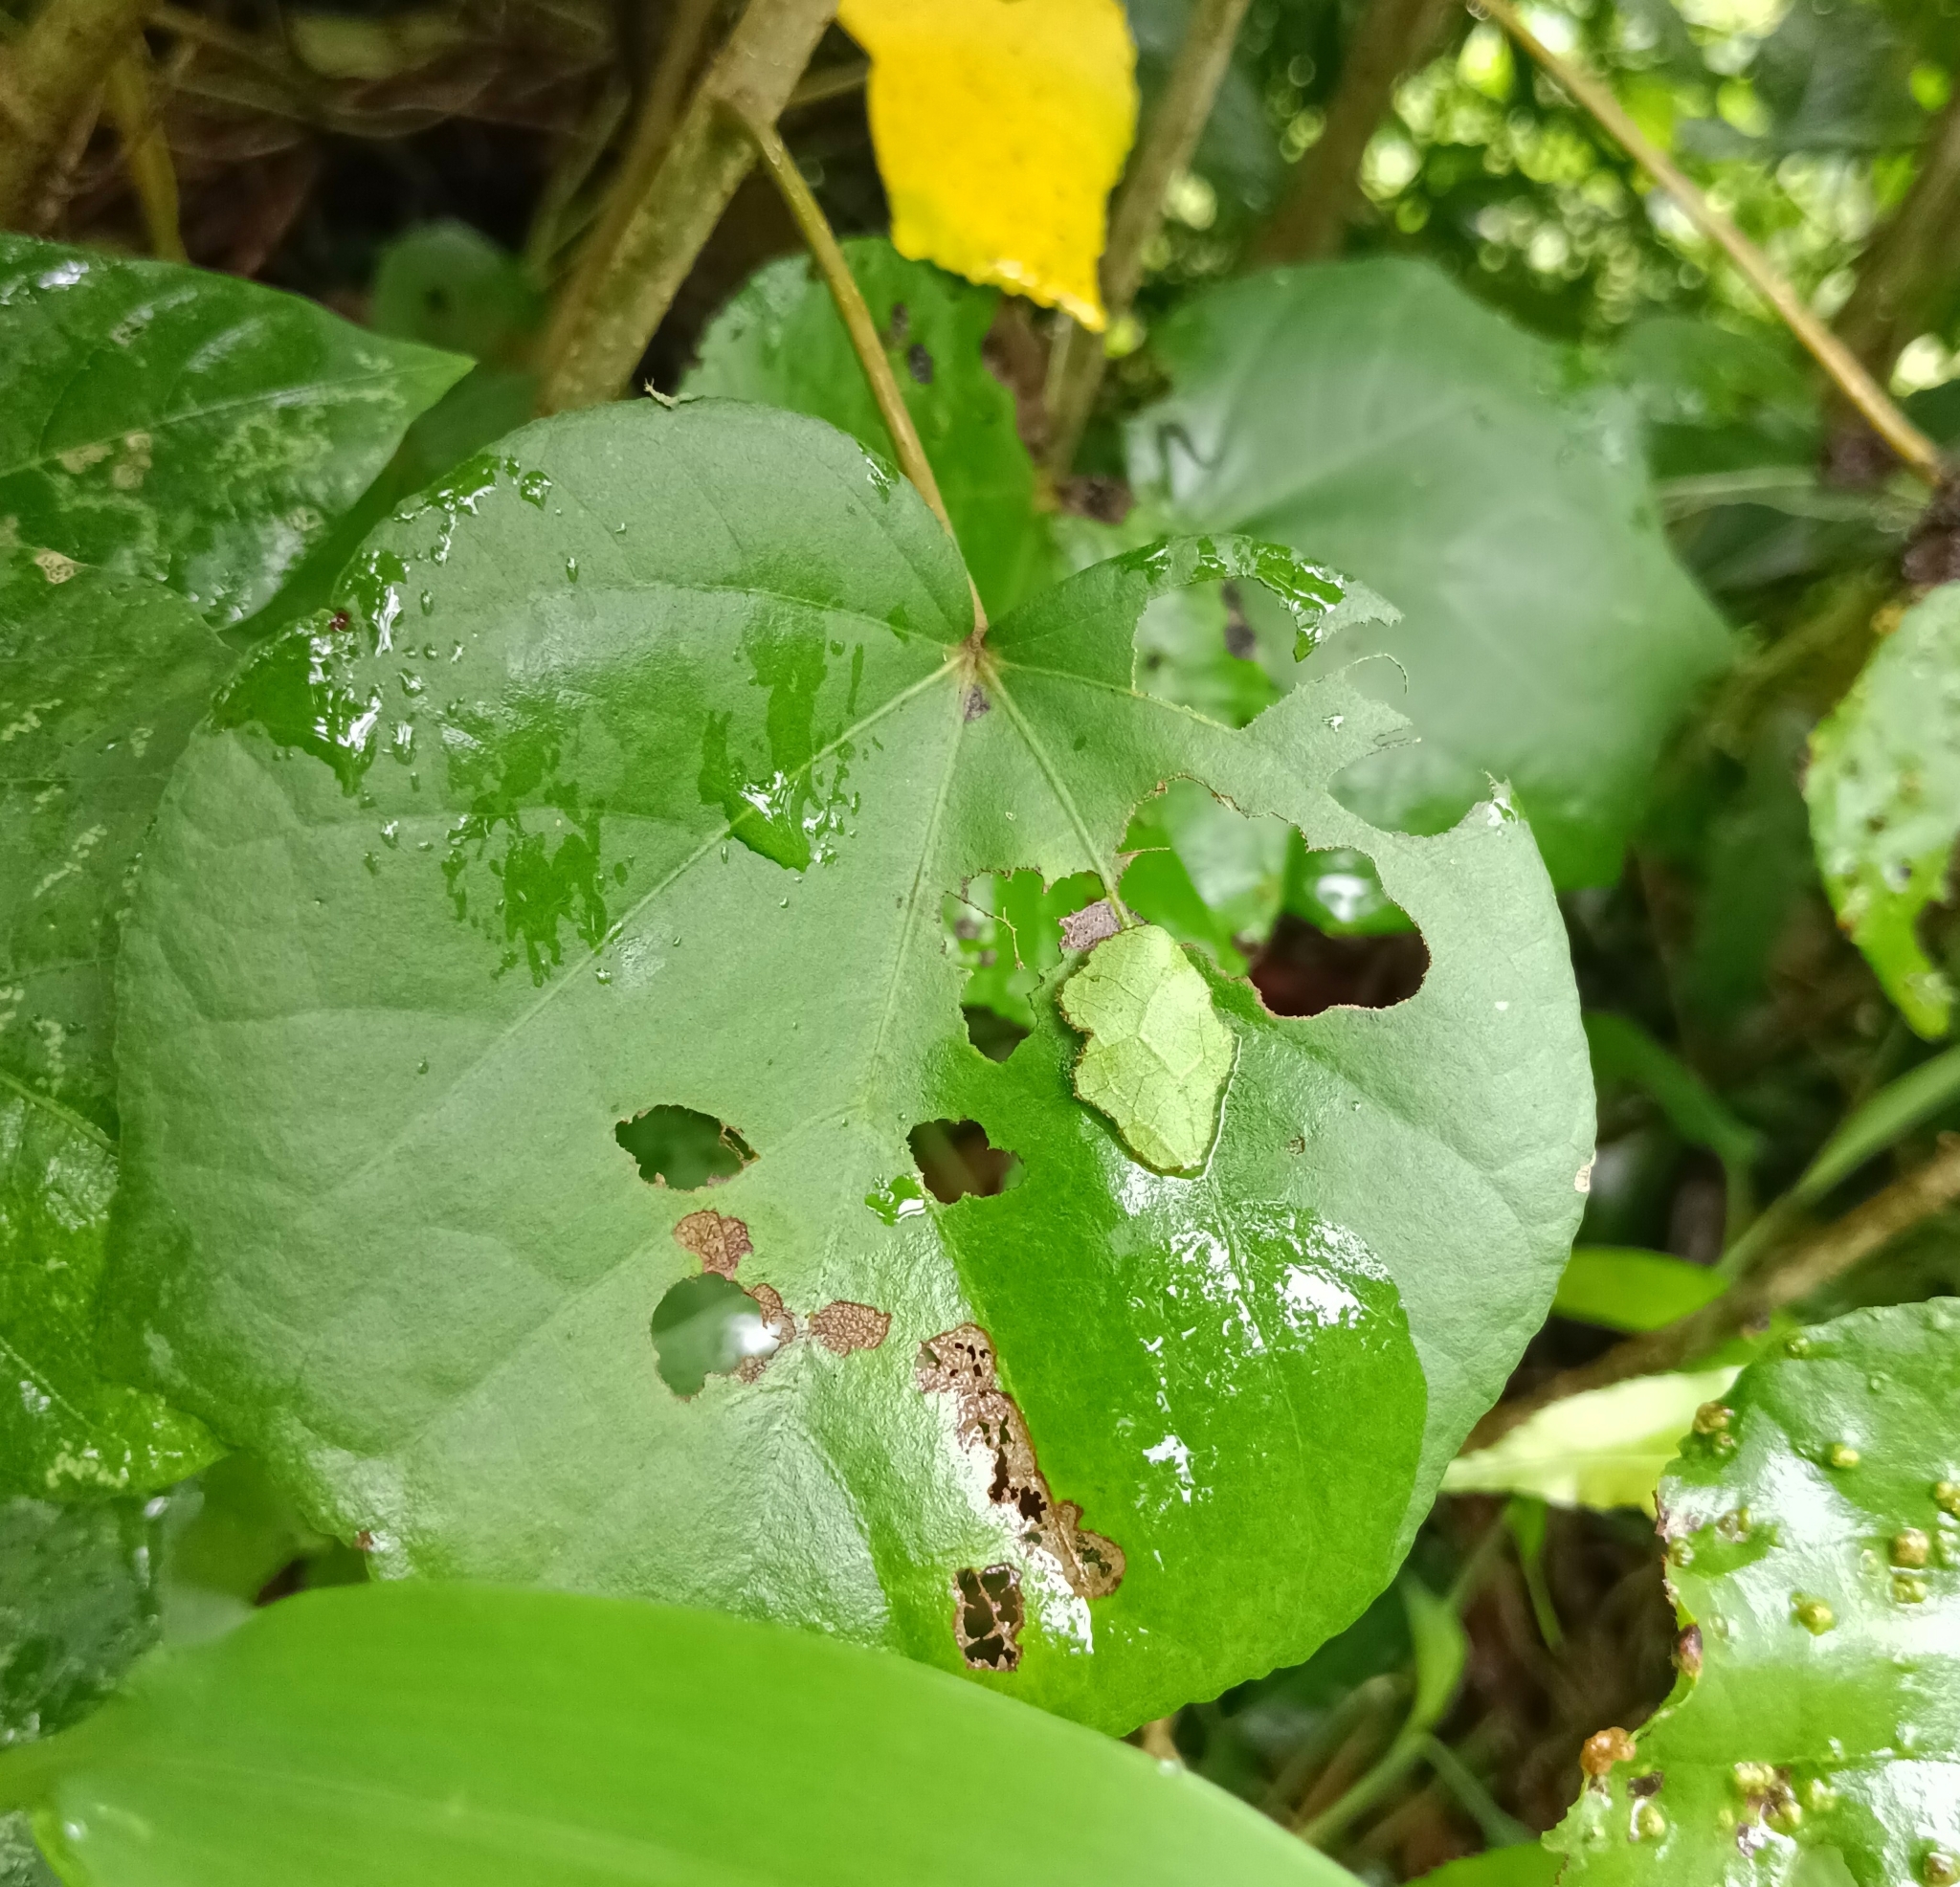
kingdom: Animalia
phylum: Arthropoda
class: Insecta
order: Lepidoptera
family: Hesperiidae
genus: Coladenia
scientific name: Coladenia
